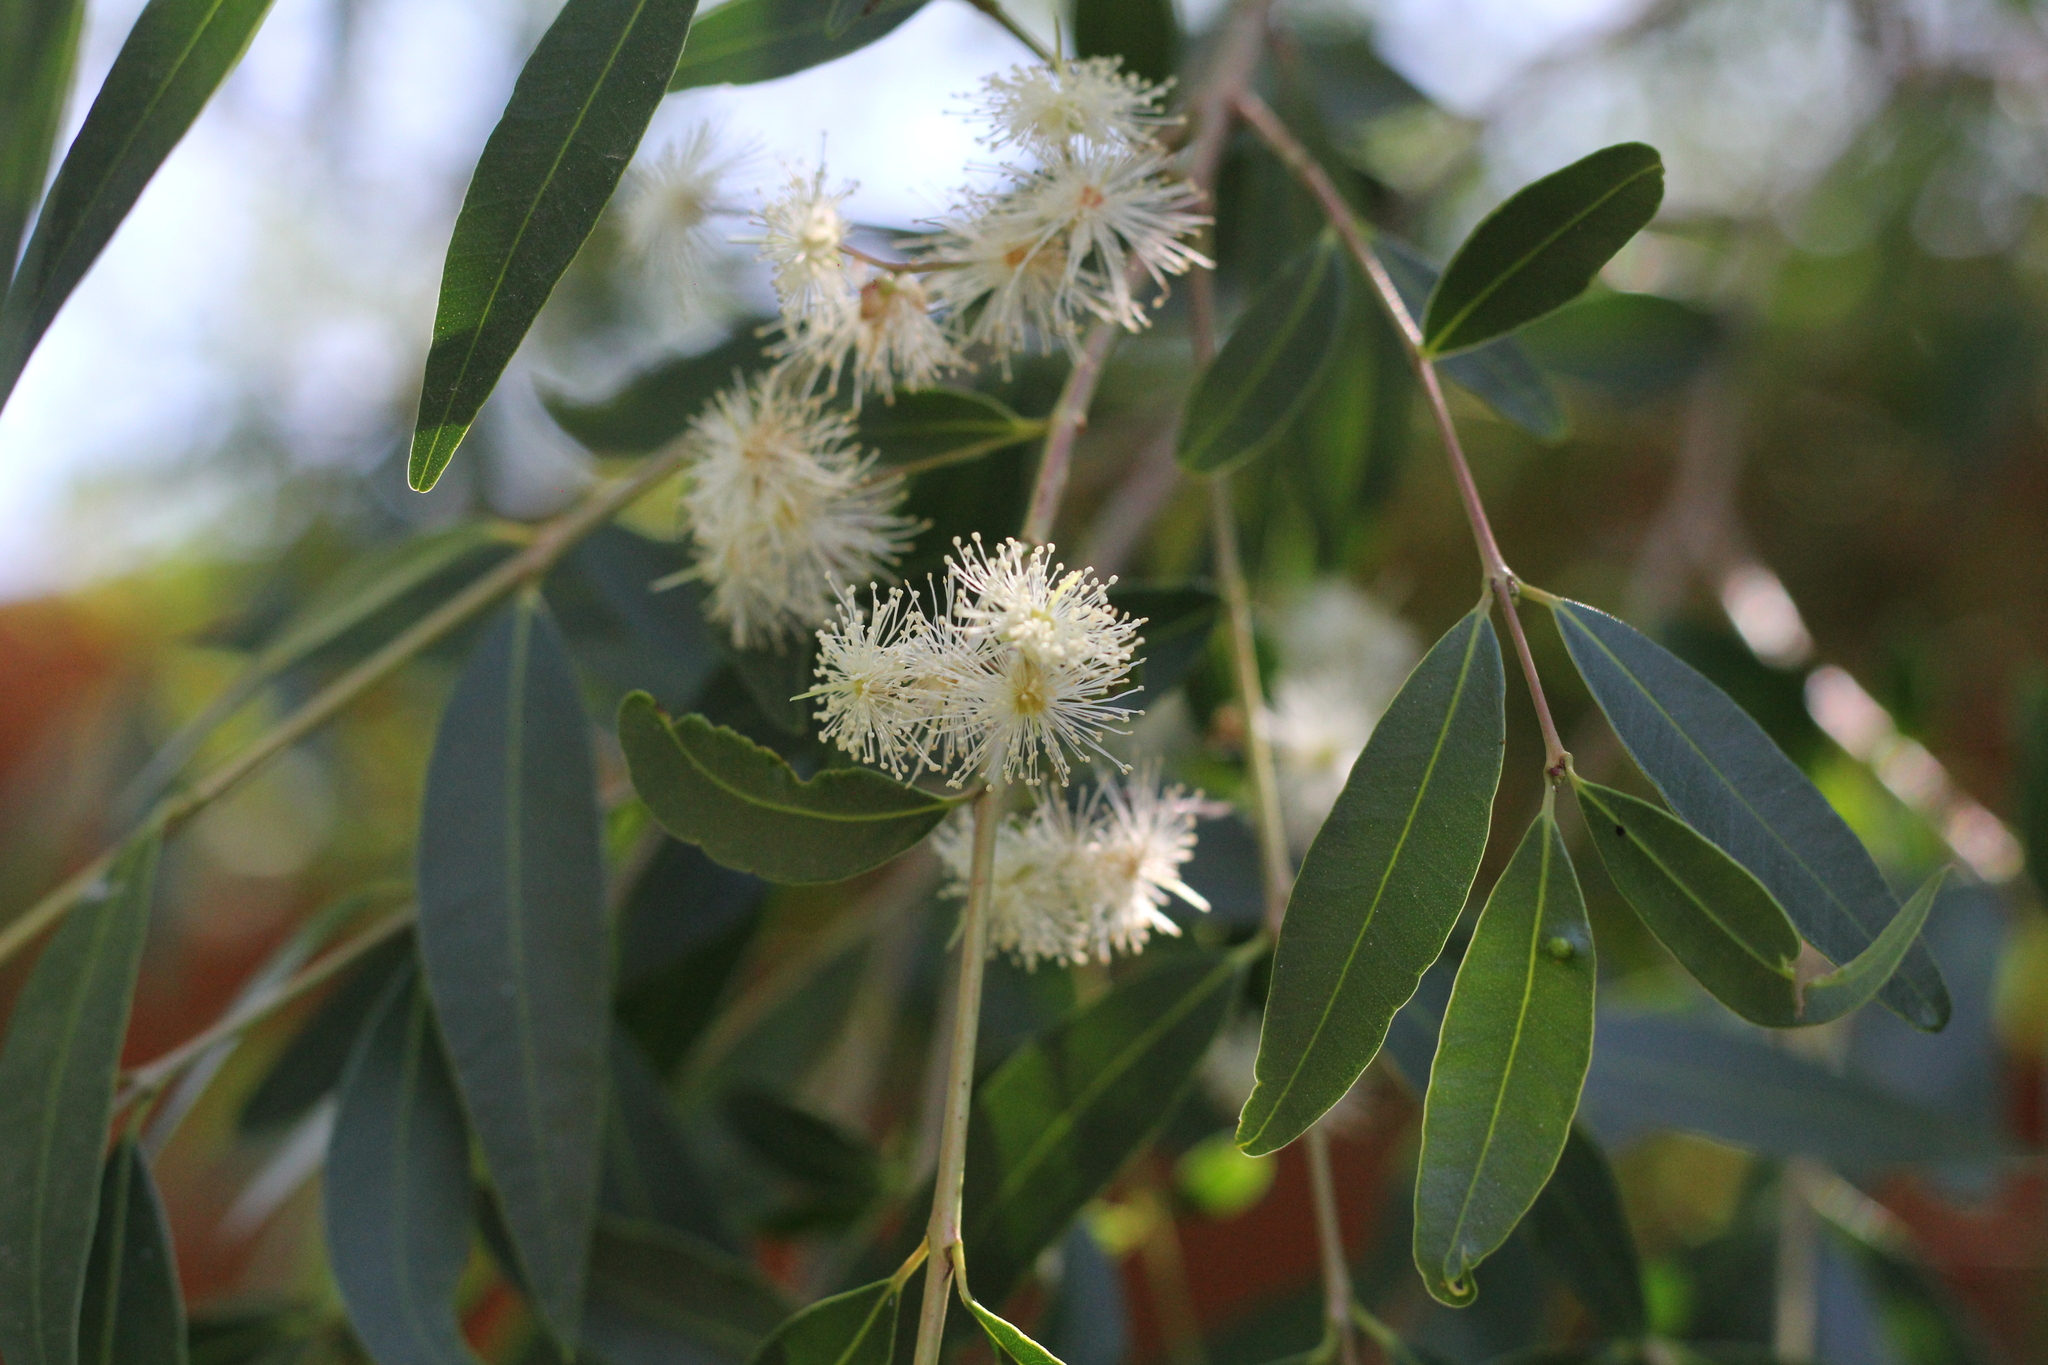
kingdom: Plantae
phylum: Tracheophyta
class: Magnoliopsida
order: Myrtales
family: Myrtaceae
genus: Blepharocalyx
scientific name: Blepharocalyx salicifolius
